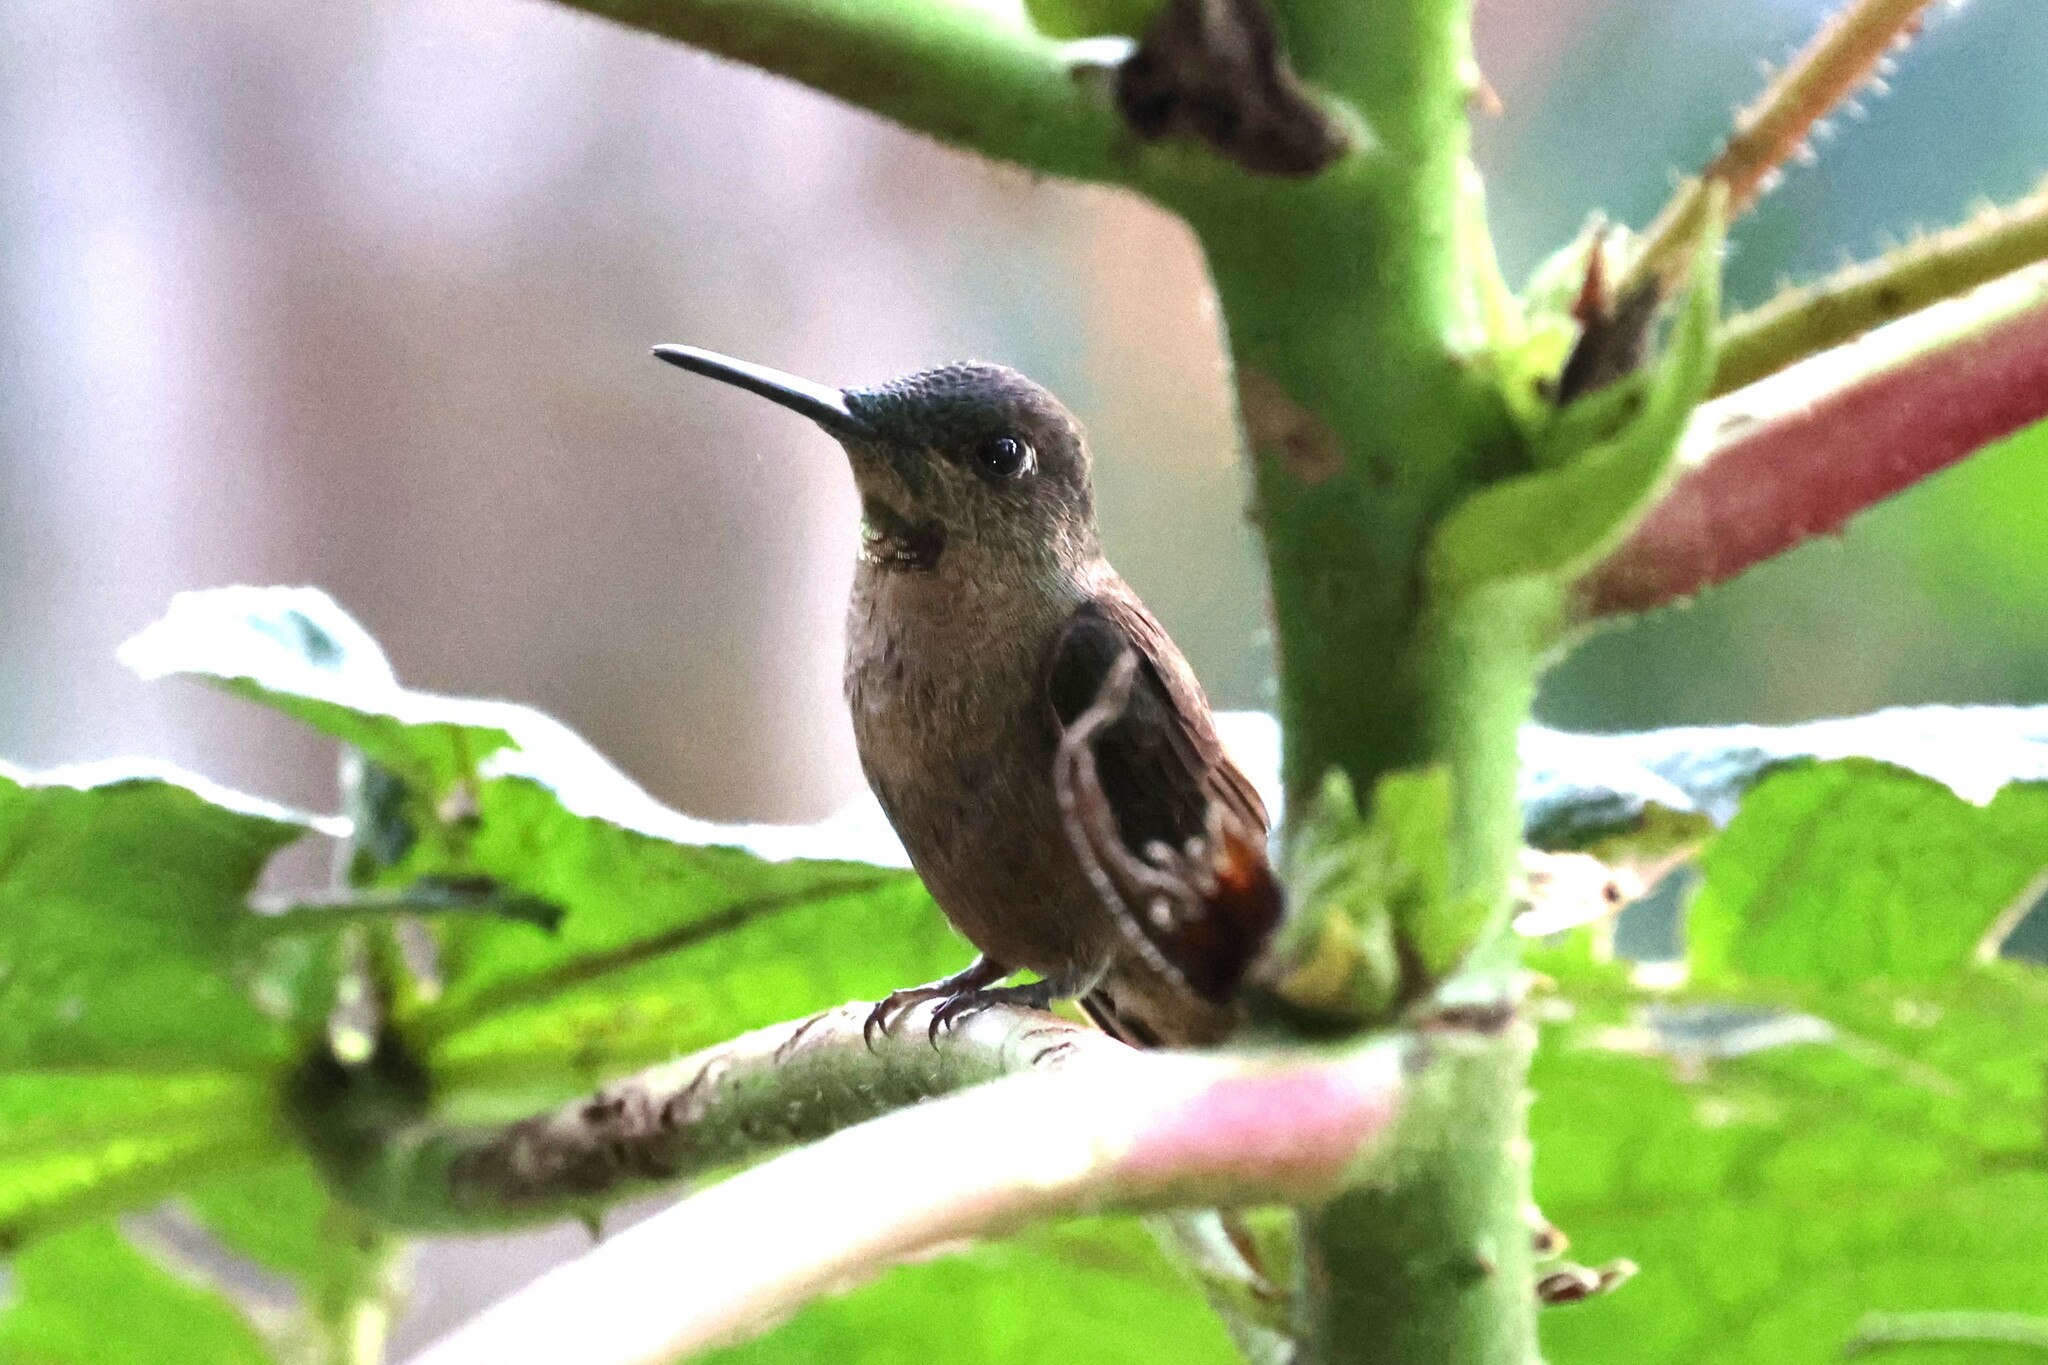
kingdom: Animalia
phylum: Chordata
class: Aves
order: Apodiformes
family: Trochilidae
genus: Heliodoxa
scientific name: Heliodoxa rubinoides
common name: Fawn-breasted brilliant
